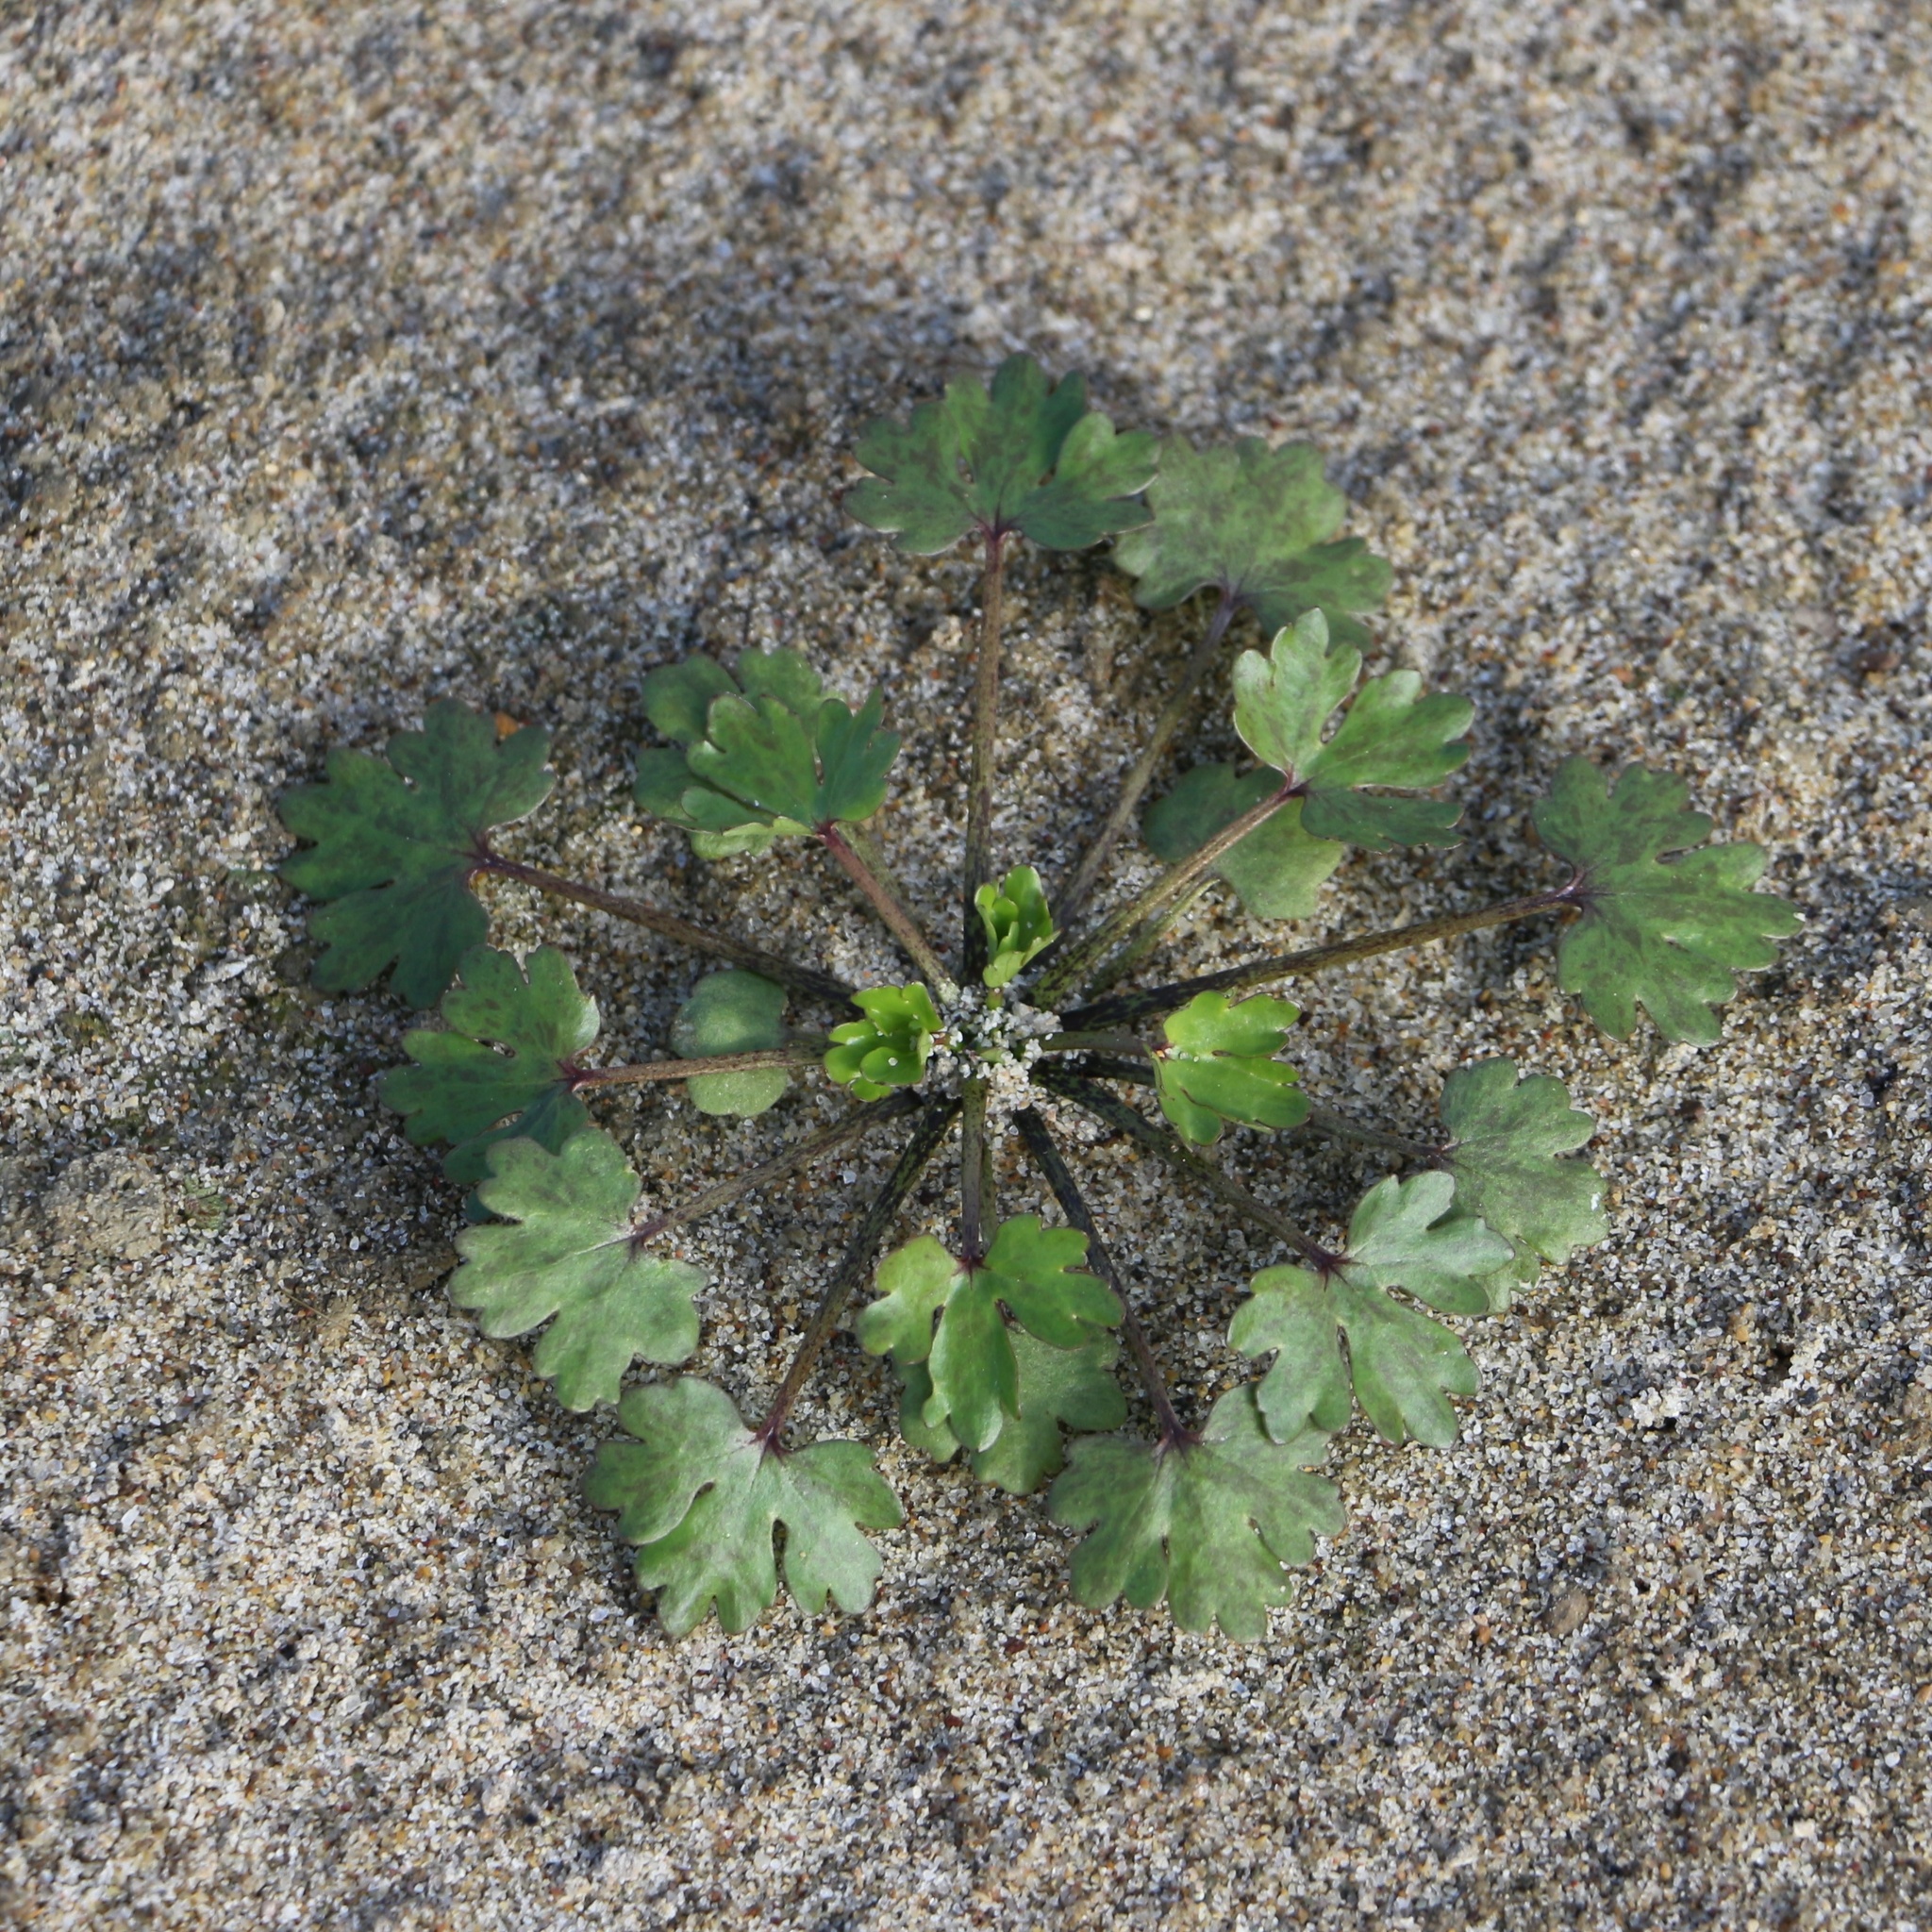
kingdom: Plantae
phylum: Tracheophyta
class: Magnoliopsida
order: Ranunculales
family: Ranunculaceae
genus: Ranunculus
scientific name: Ranunculus sceleratus
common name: Celery-leaved buttercup
